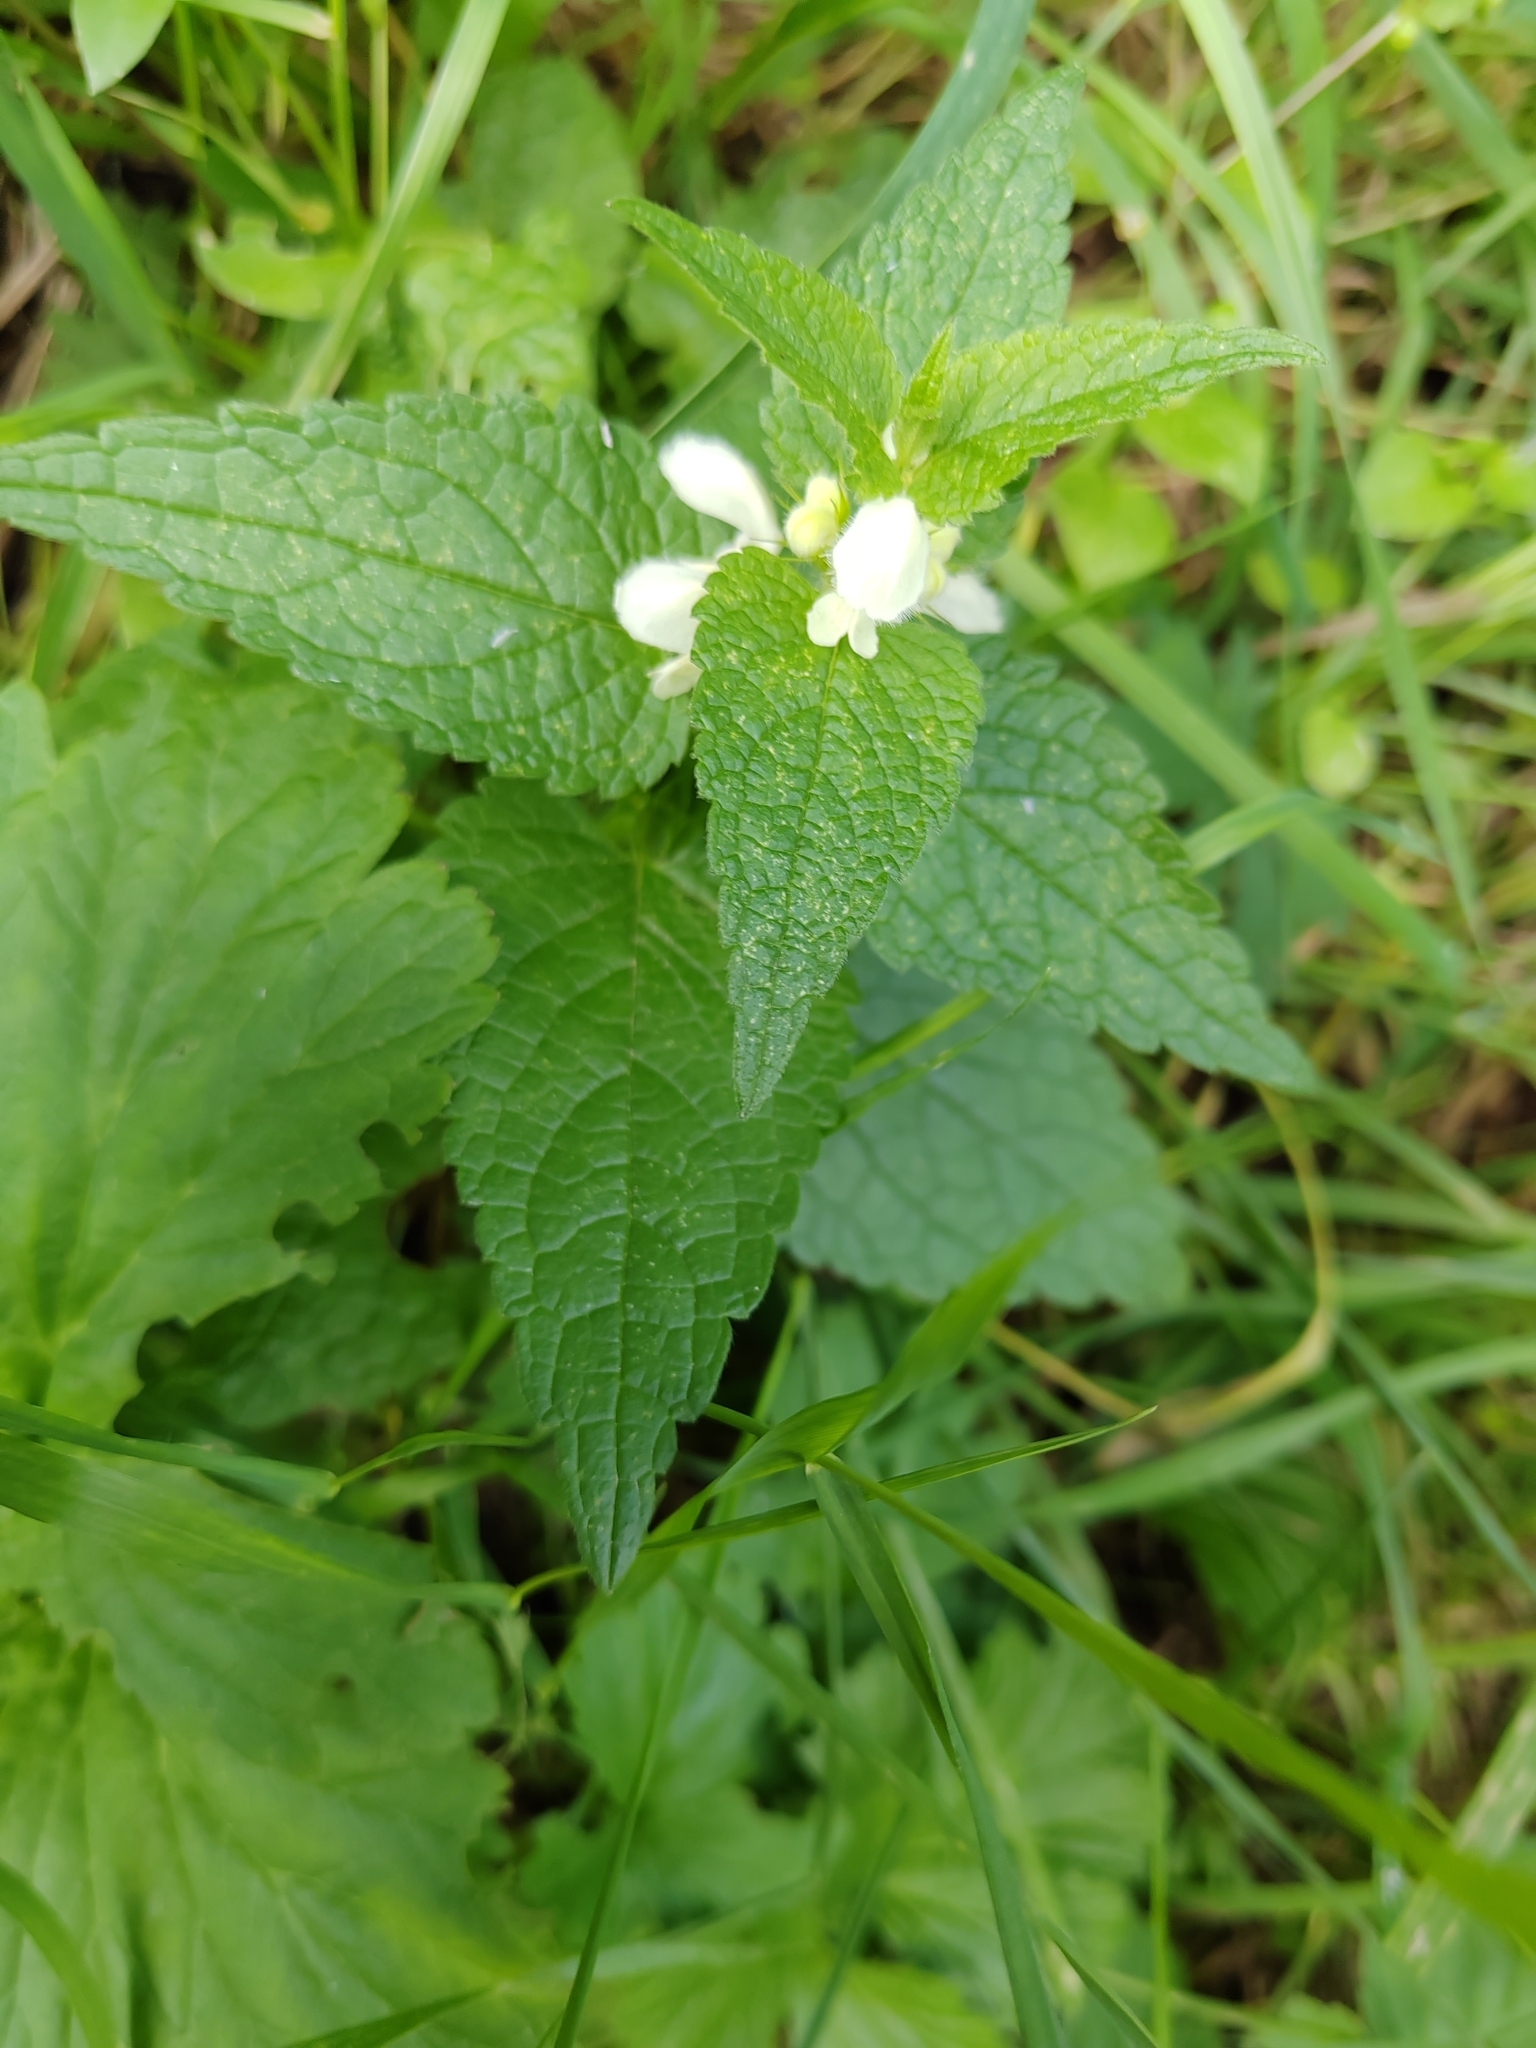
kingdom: Plantae
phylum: Tracheophyta
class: Magnoliopsida
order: Lamiales
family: Lamiaceae
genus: Lamium
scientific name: Lamium album
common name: White dead-nettle
